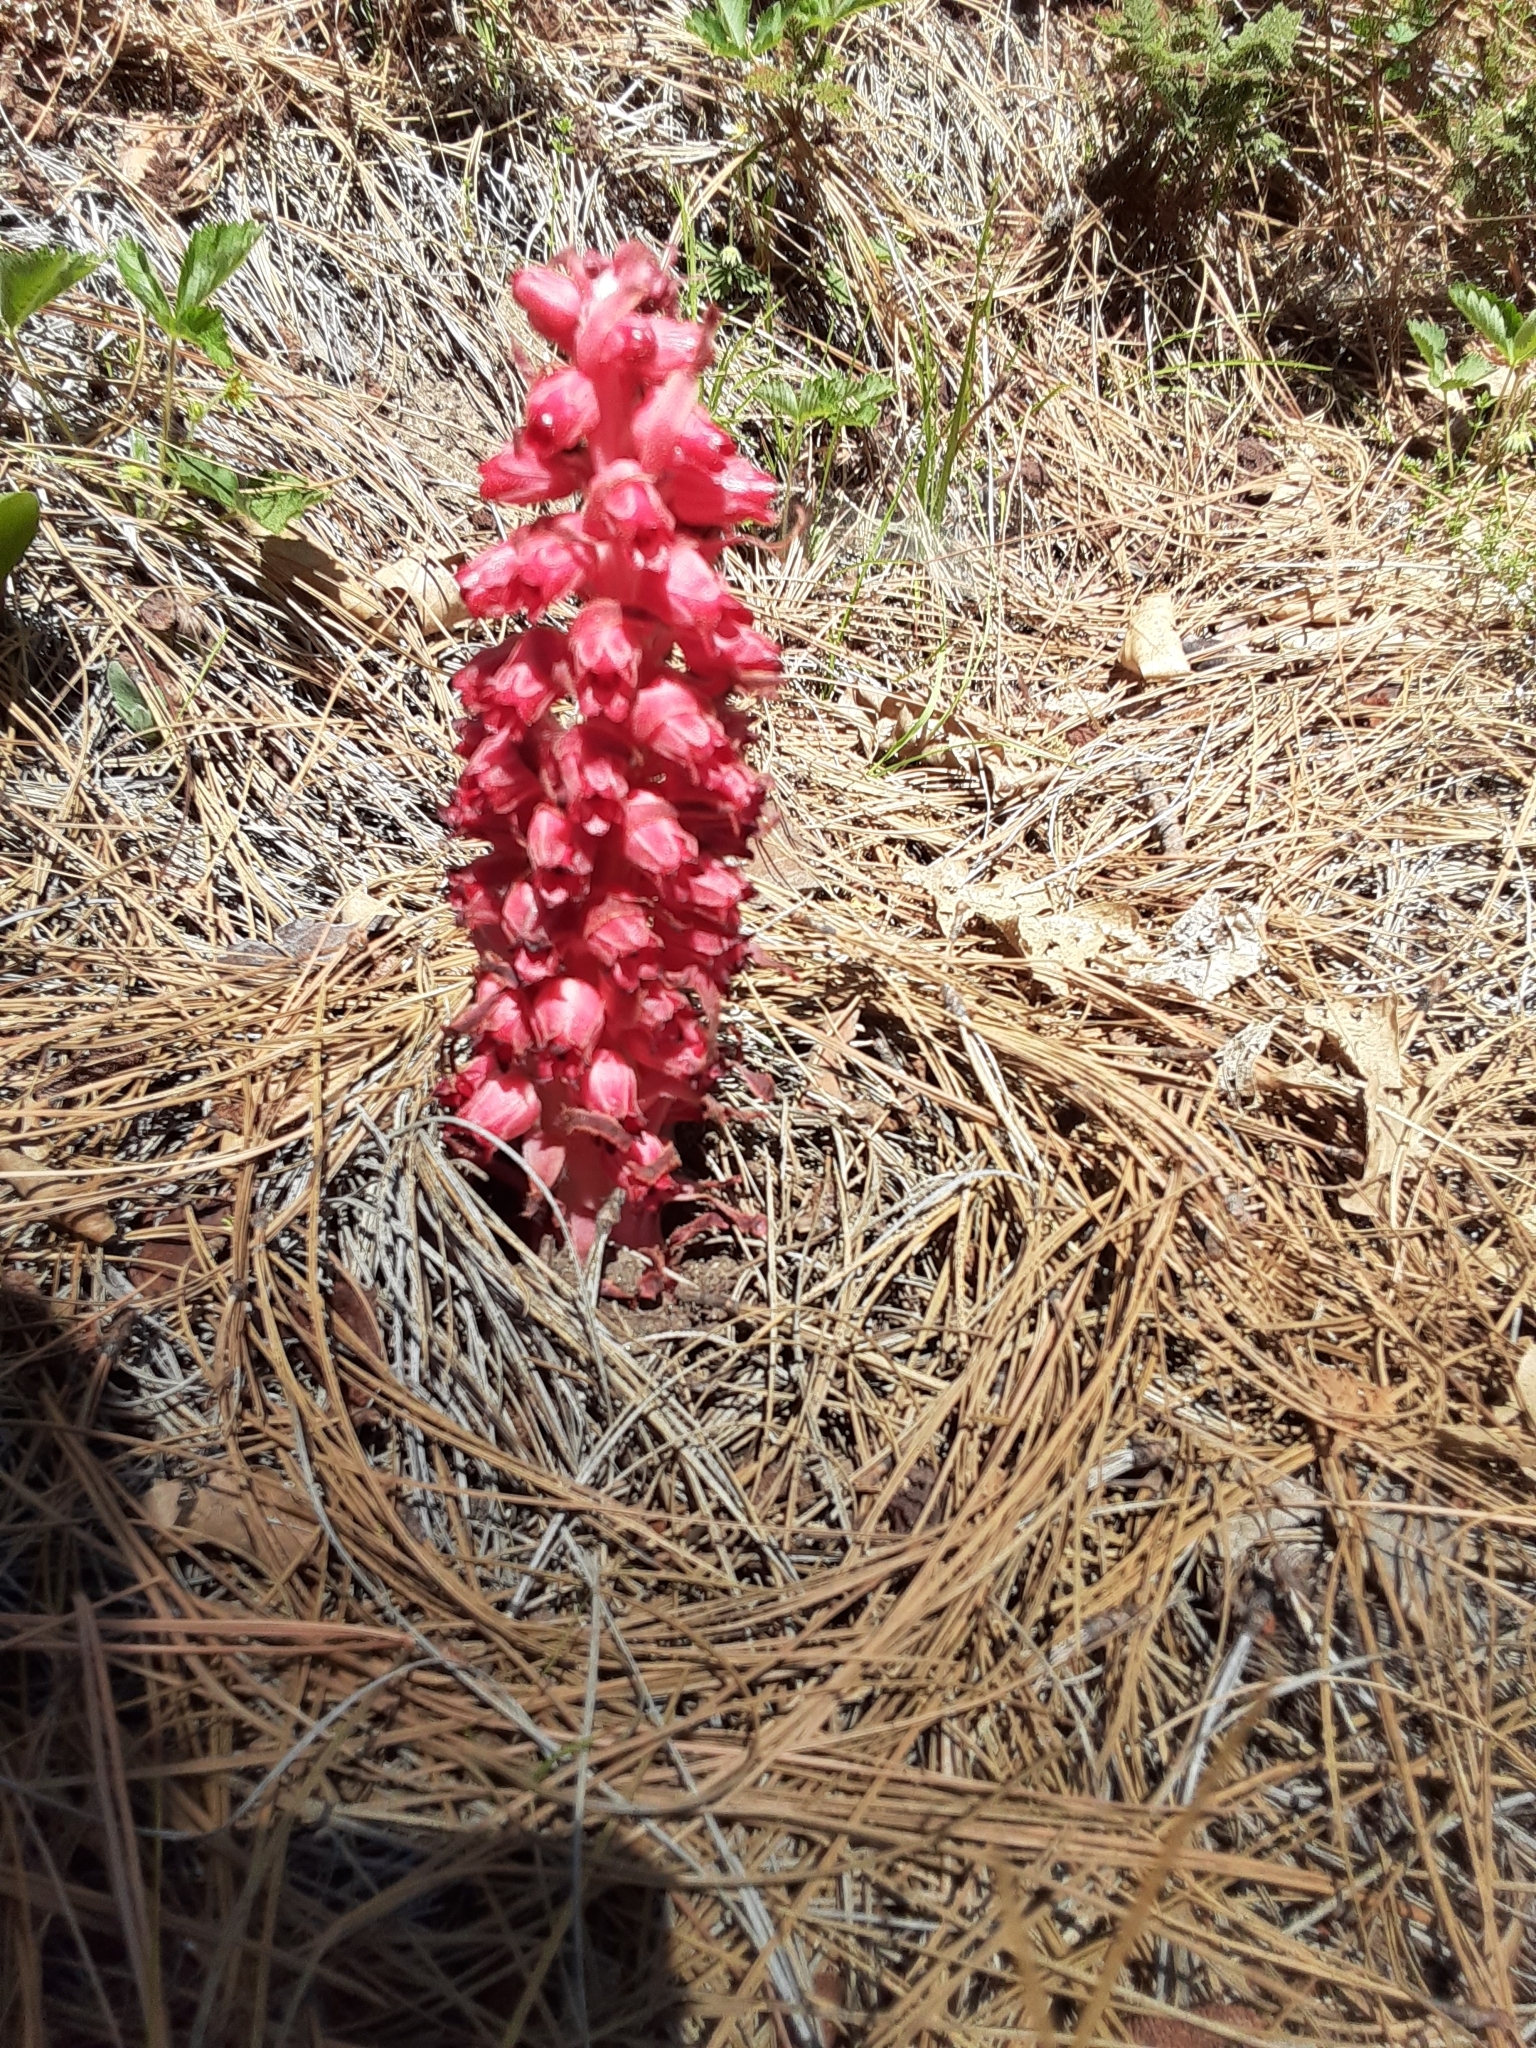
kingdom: Plantae
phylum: Tracheophyta
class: Magnoliopsida
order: Ericales
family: Ericaceae
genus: Sarcodes
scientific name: Sarcodes sanguinea
